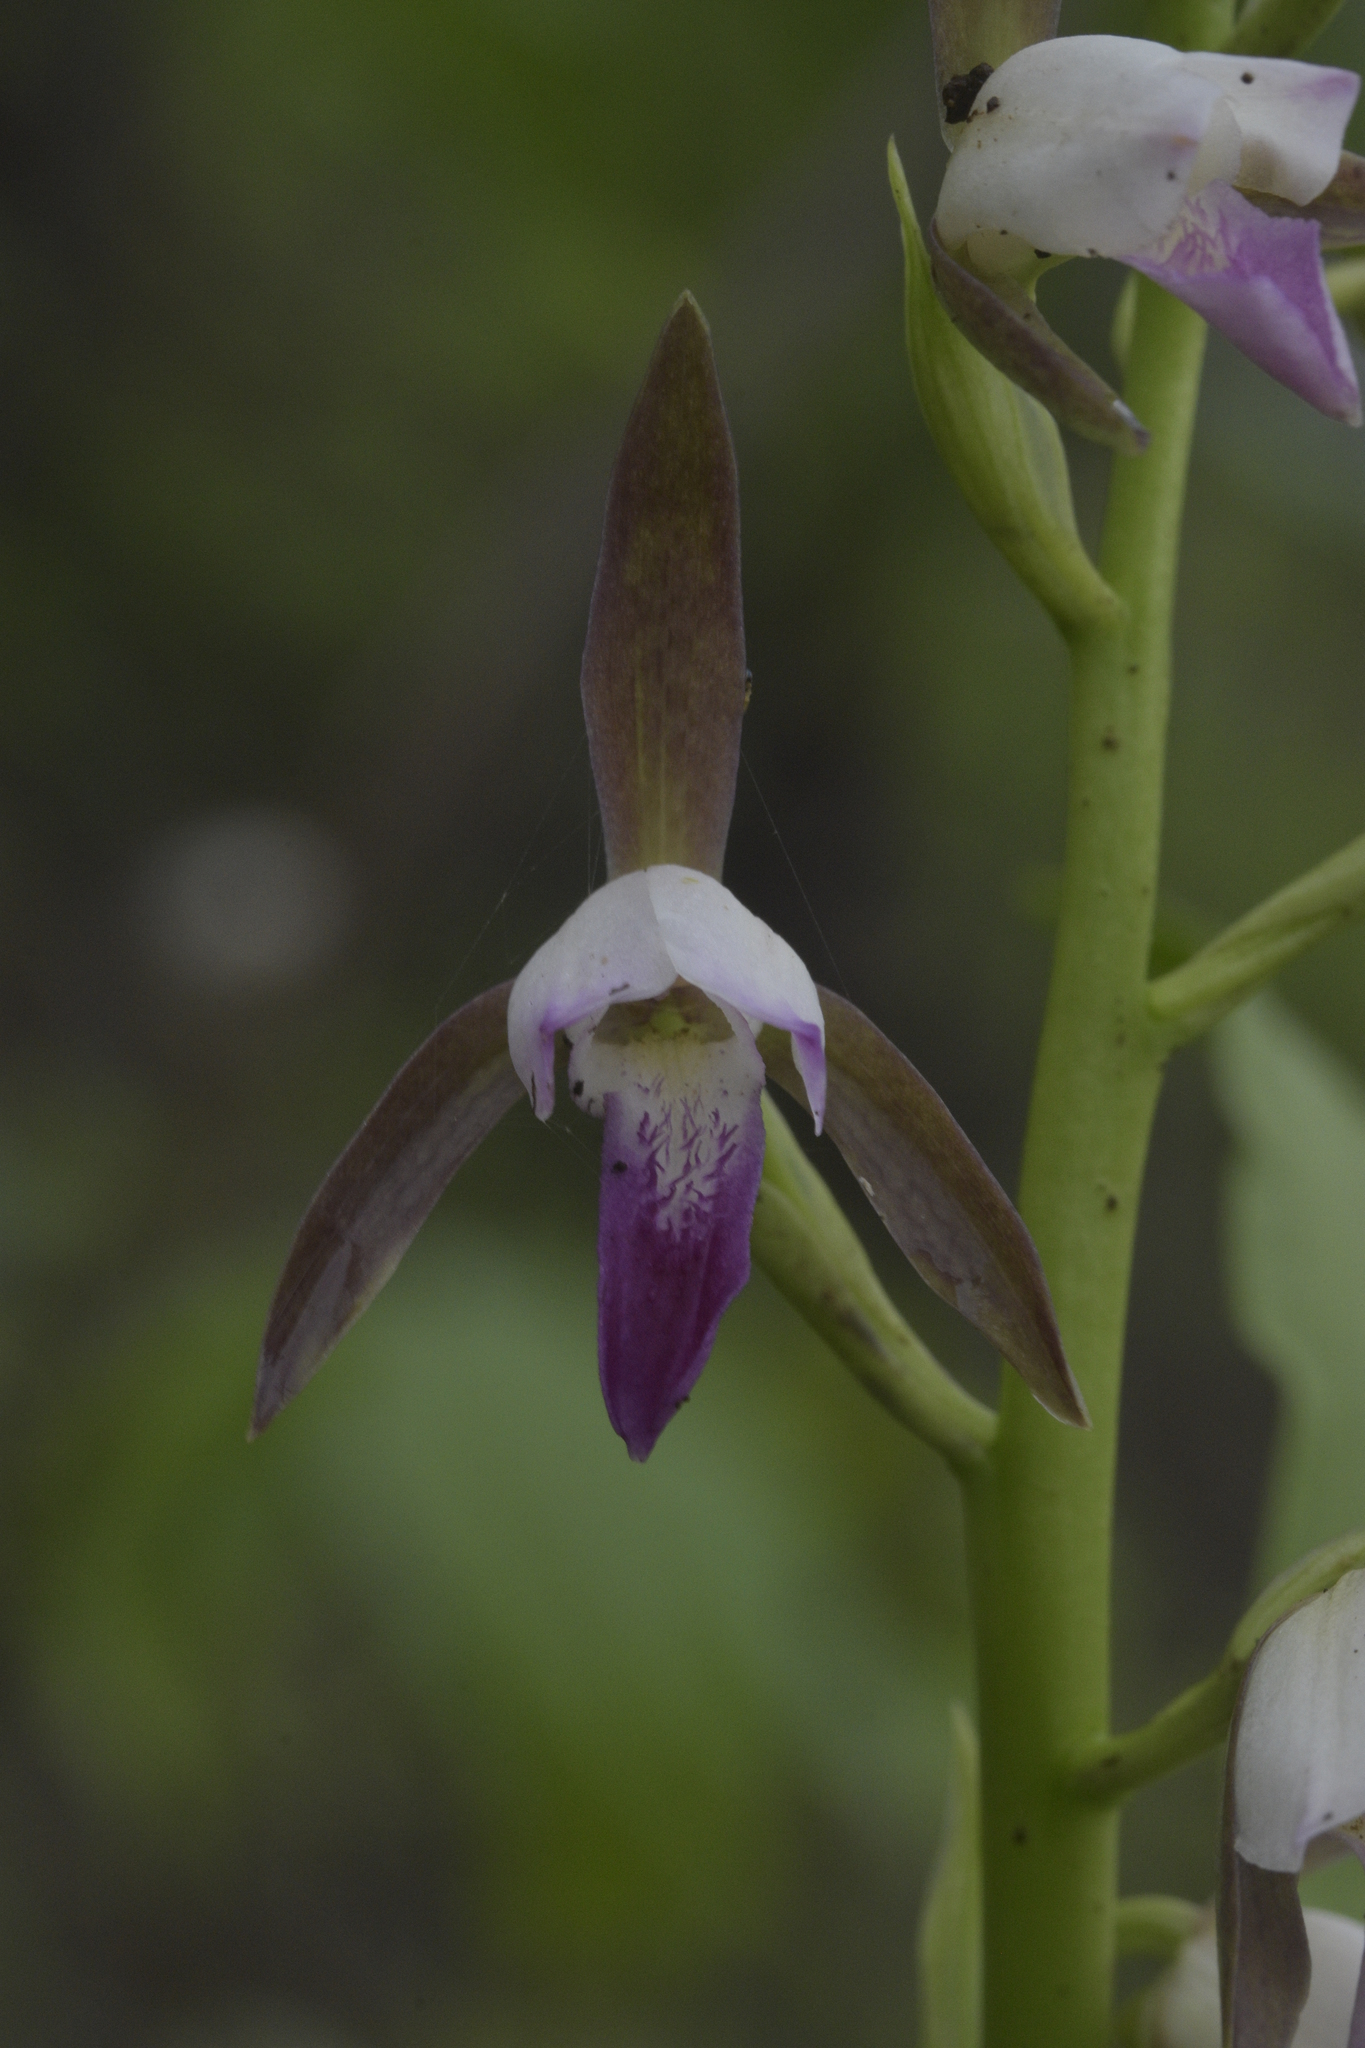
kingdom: Plantae
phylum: Tracheophyta
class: Liliopsida
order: Asparagales
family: Orchidaceae
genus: Eulophia
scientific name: Eulophia herbacea
